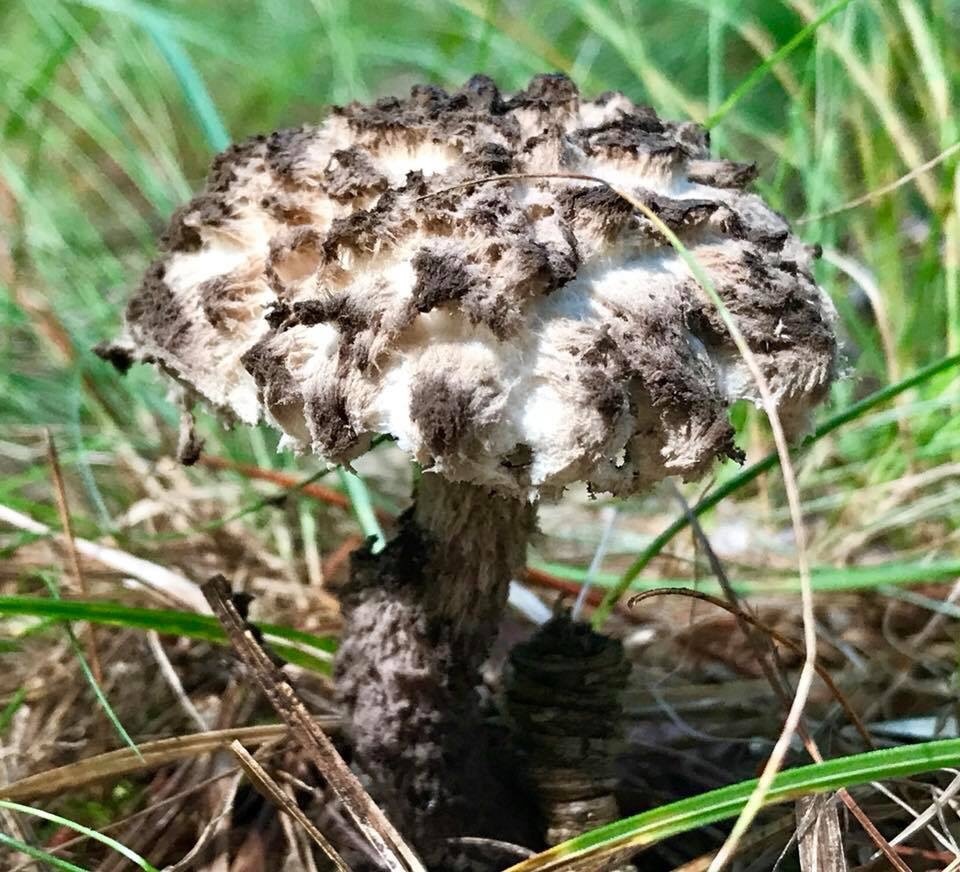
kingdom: Fungi
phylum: Basidiomycota
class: Agaricomycetes
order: Boletales
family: Boletaceae
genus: Strobilomyces
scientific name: Strobilomyces strobilaceus
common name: Old man of the woods
